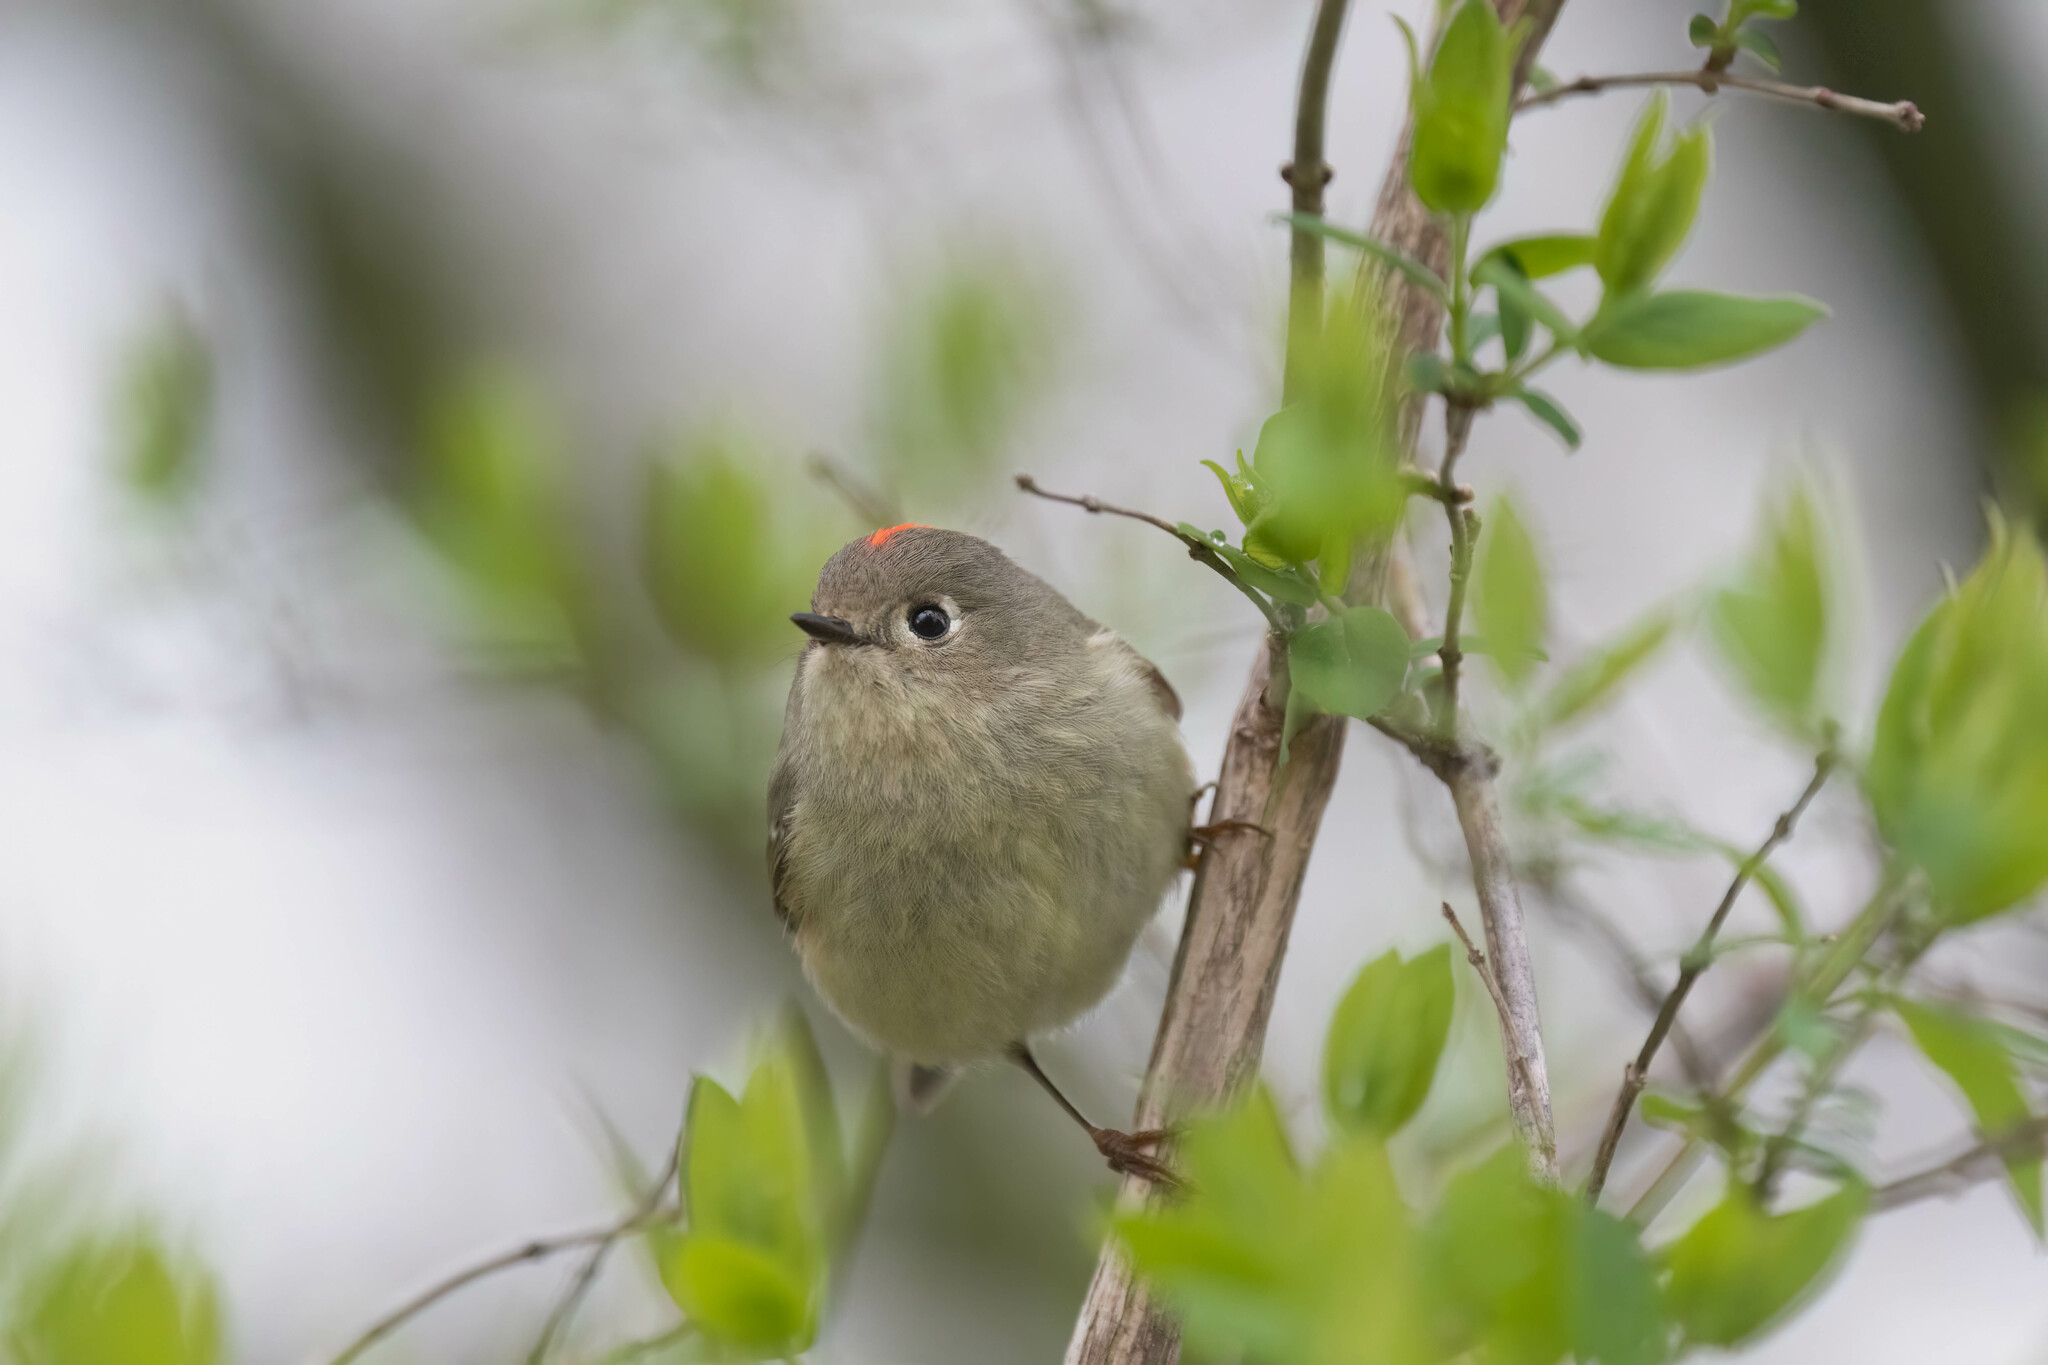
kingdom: Animalia
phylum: Chordata
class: Aves
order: Passeriformes
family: Regulidae
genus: Regulus
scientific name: Regulus calendula
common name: Ruby-crowned kinglet
